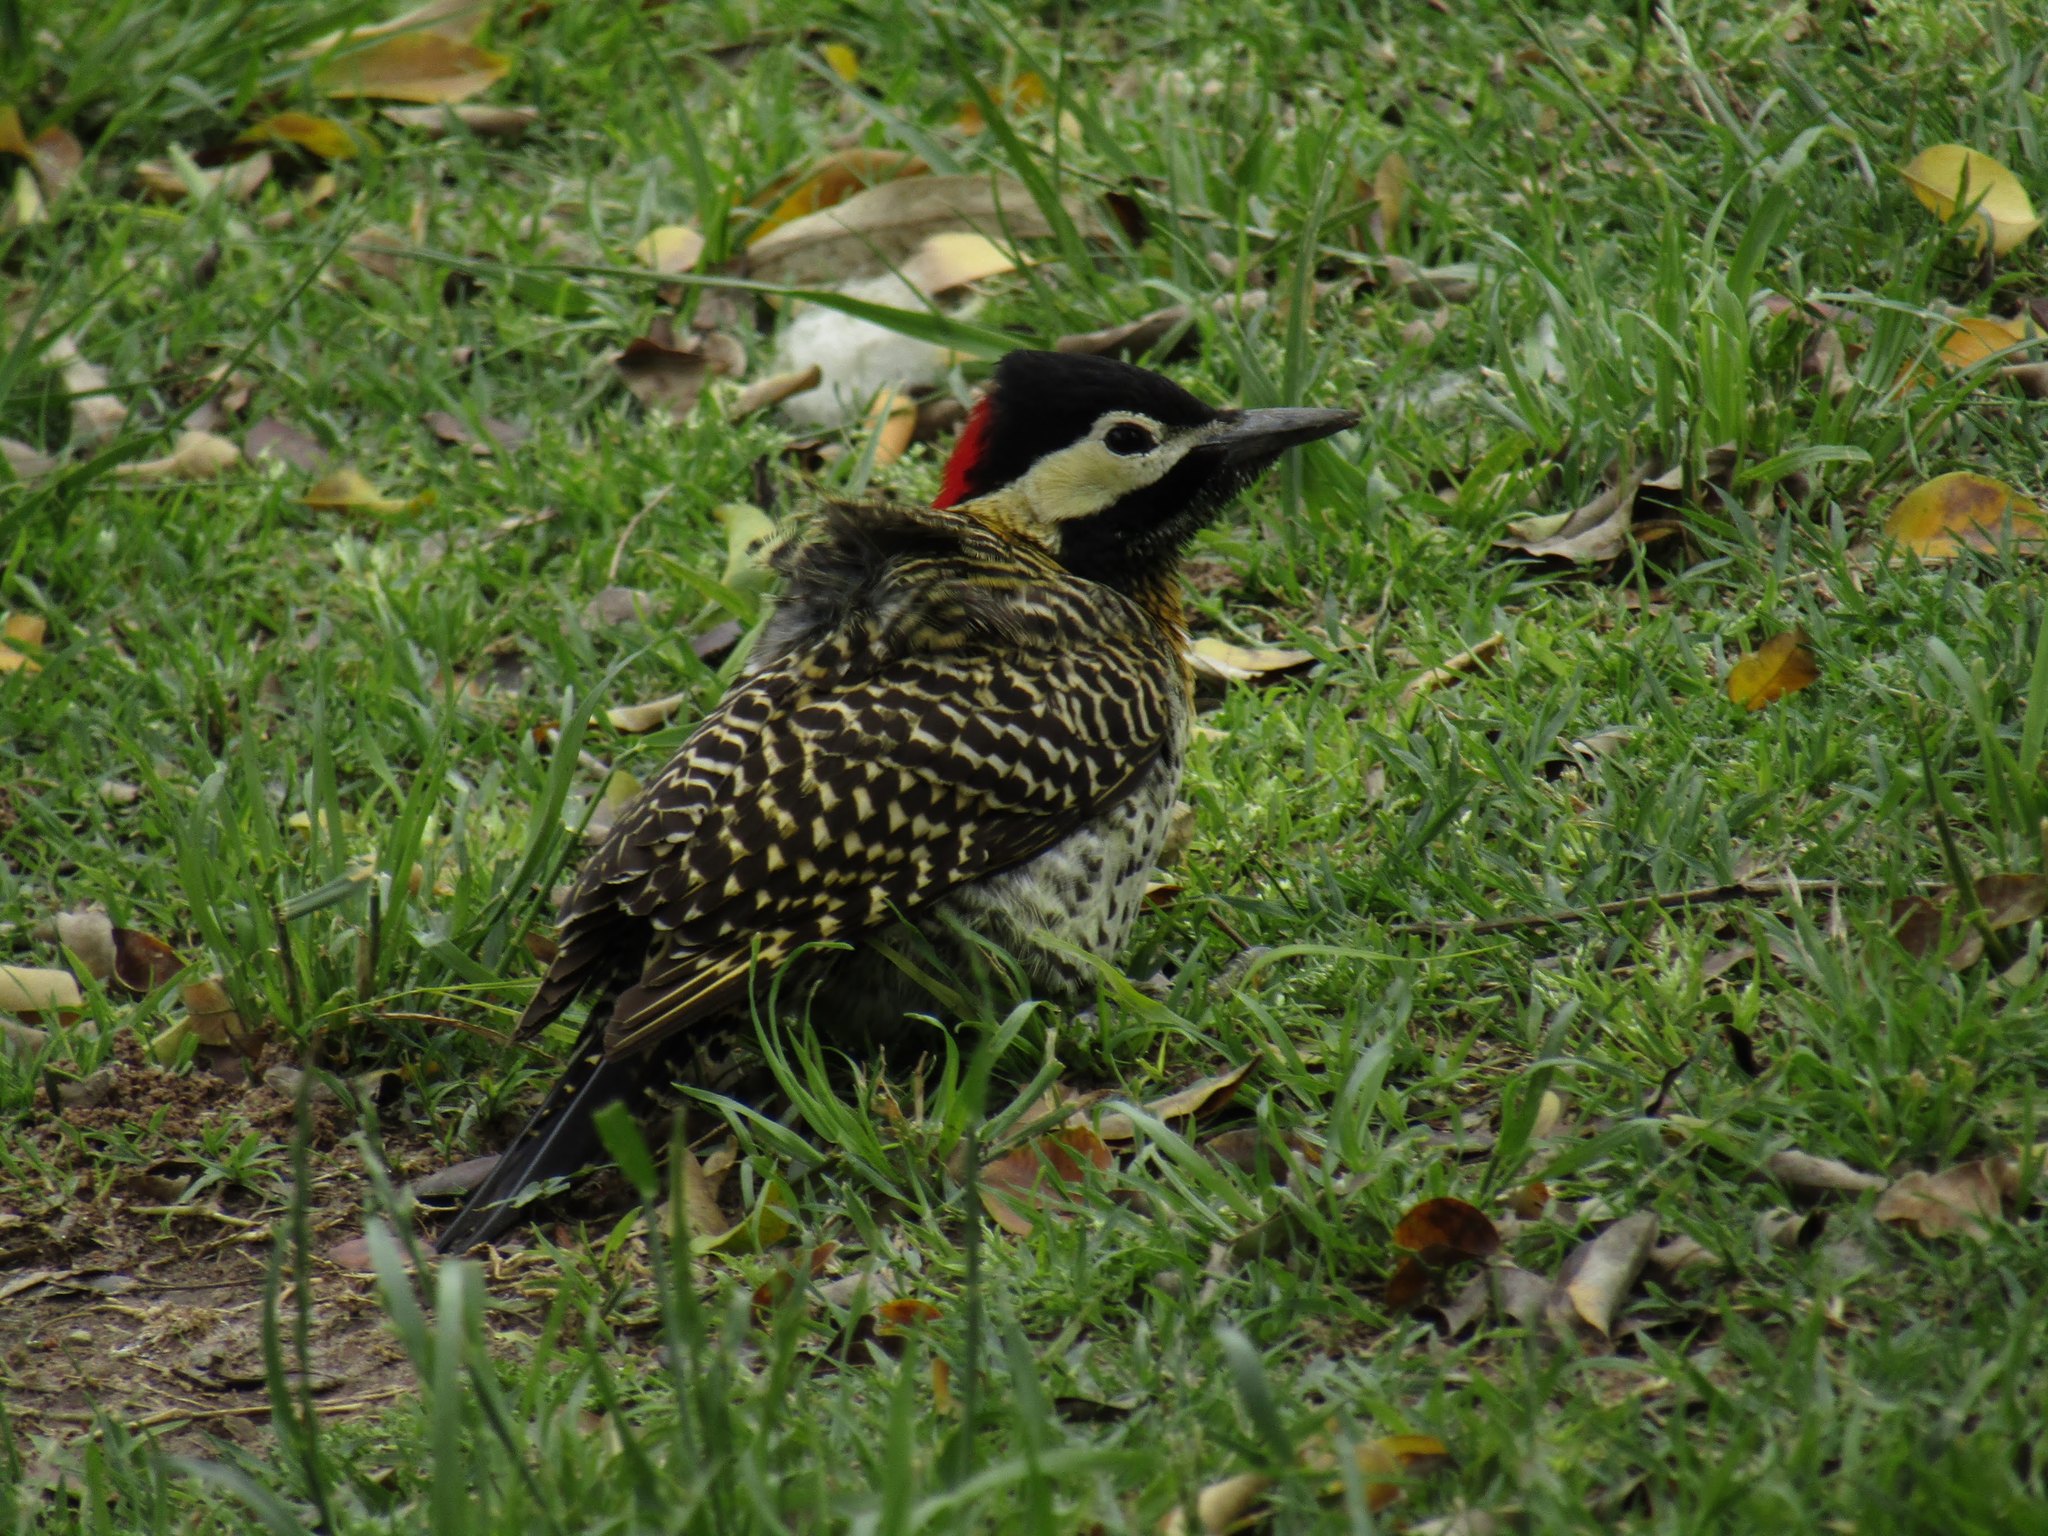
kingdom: Animalia
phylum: Chordata
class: Aves
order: Piciformes
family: Picidae
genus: Colaptes
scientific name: Colaptes melanochloros
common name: Green-barred woodpecker
